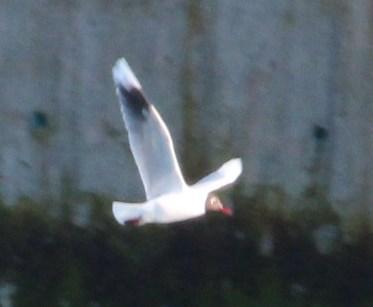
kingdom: Animalia
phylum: Chordata
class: Aves
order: Charadriiformes
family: Laridae
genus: Chroicocephalus
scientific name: Chroicocephalus maculipennis
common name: Brown-hooded gull
